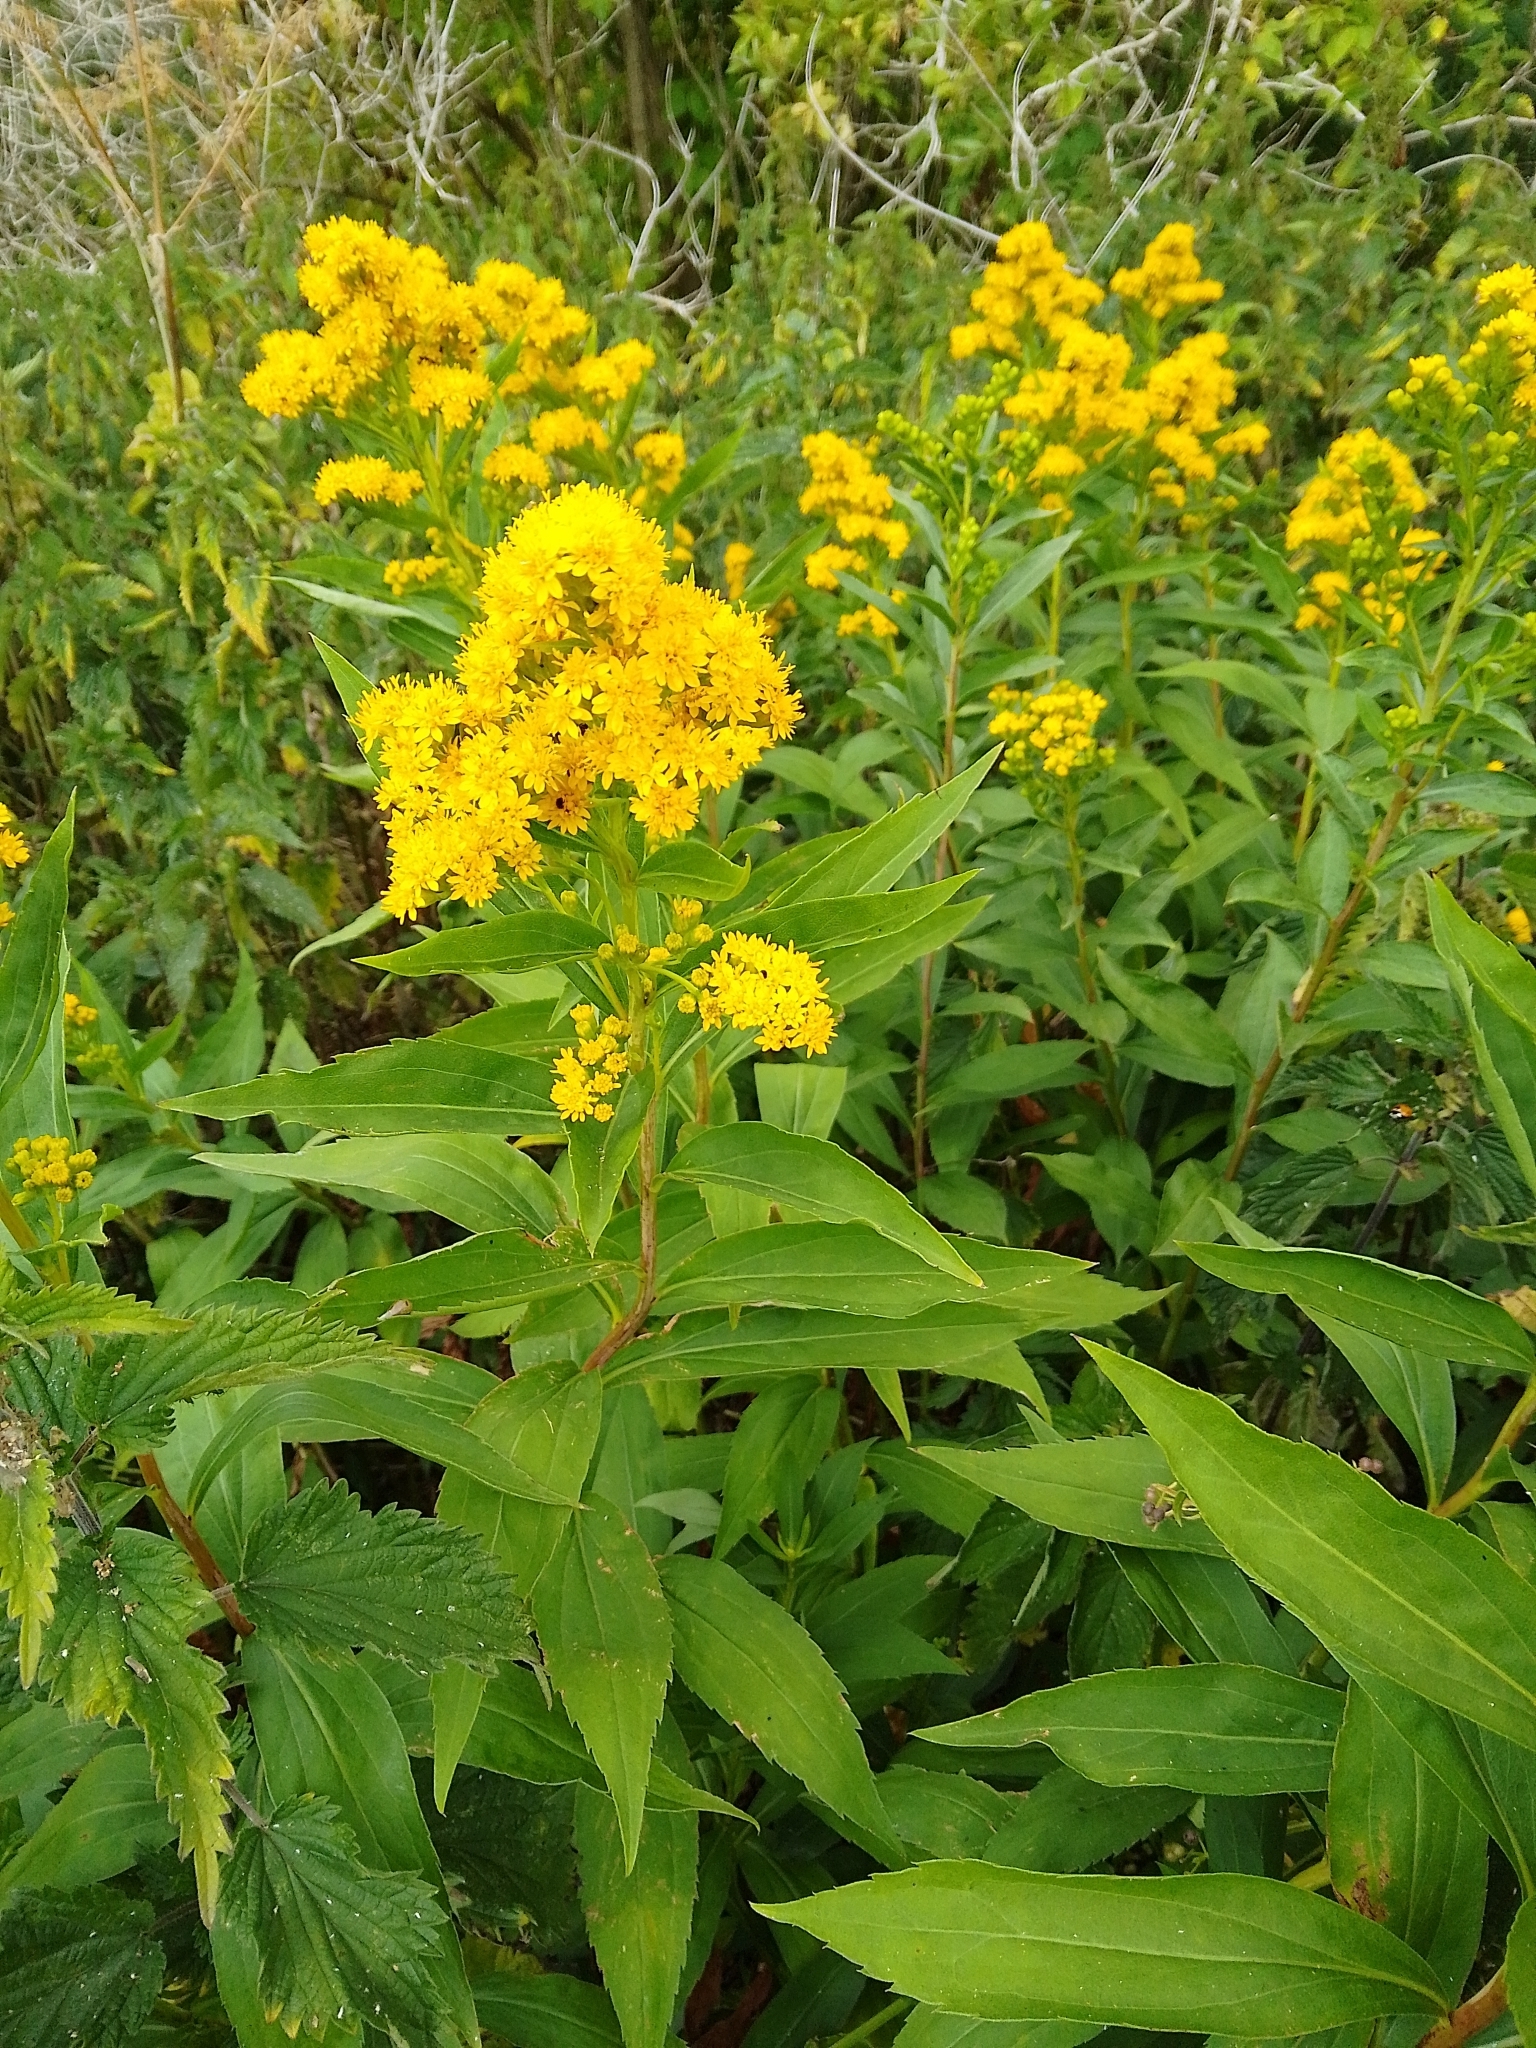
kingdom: Plantae
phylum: Tracheophyta
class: Magnoliopsida
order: Asterales
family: Asteraceae
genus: Solidago
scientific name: Solidago canadensis
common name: Canada goldenrod
